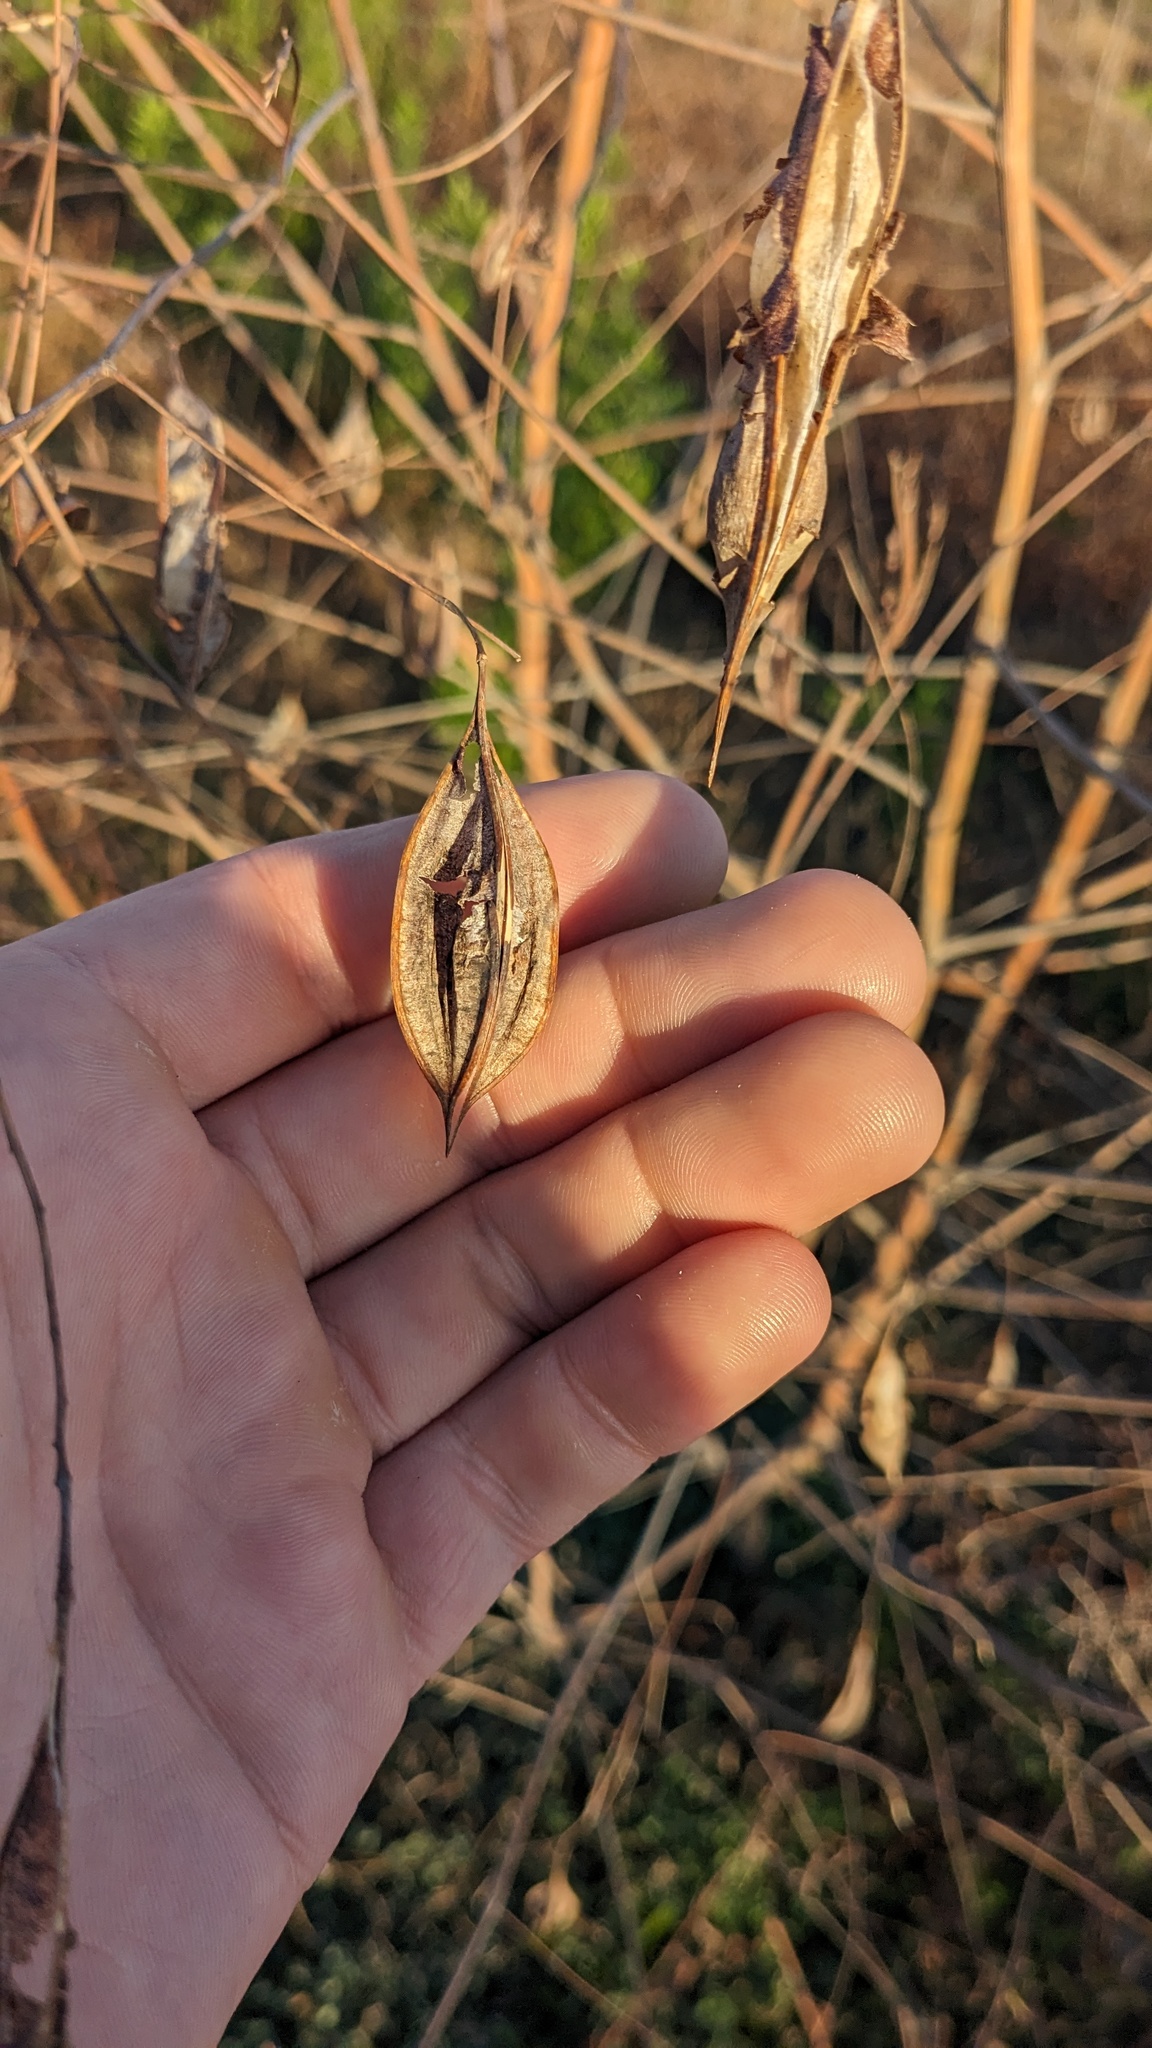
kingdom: Plantae
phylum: Tracheophyta
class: Magnoliopsida
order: Fabales
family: Fabaceae
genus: Sesbania
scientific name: Sesbania vesicaria
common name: Bagpod
